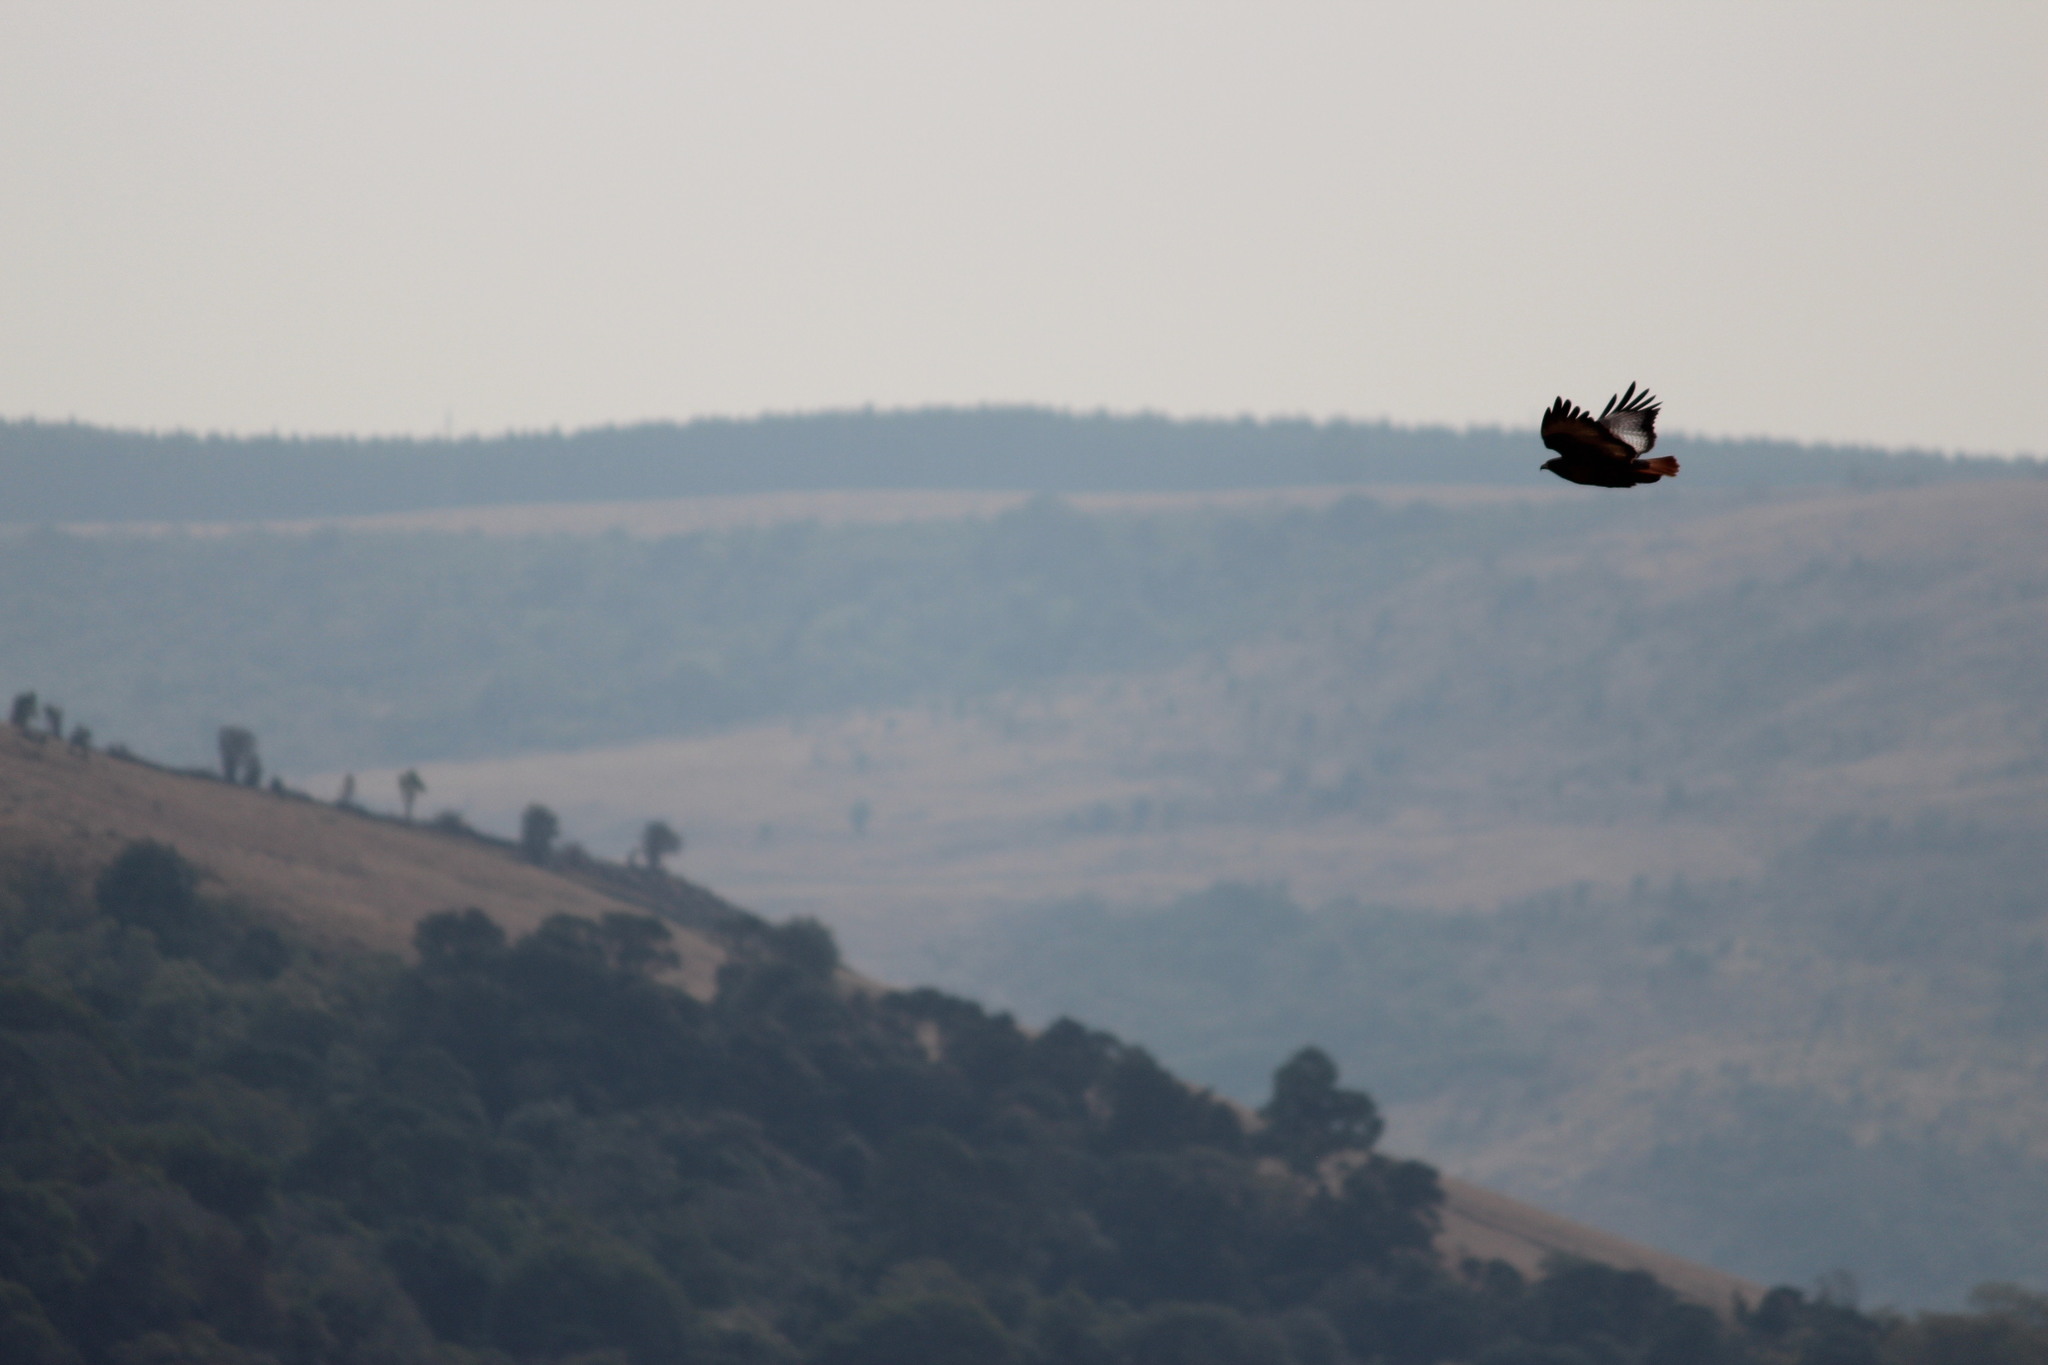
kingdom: Animalia
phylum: Chordata
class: Aves
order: Accipitriformes
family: Accipitridae
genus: Buteo
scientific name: Buteo rufofuscus
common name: Jackal buzzard
